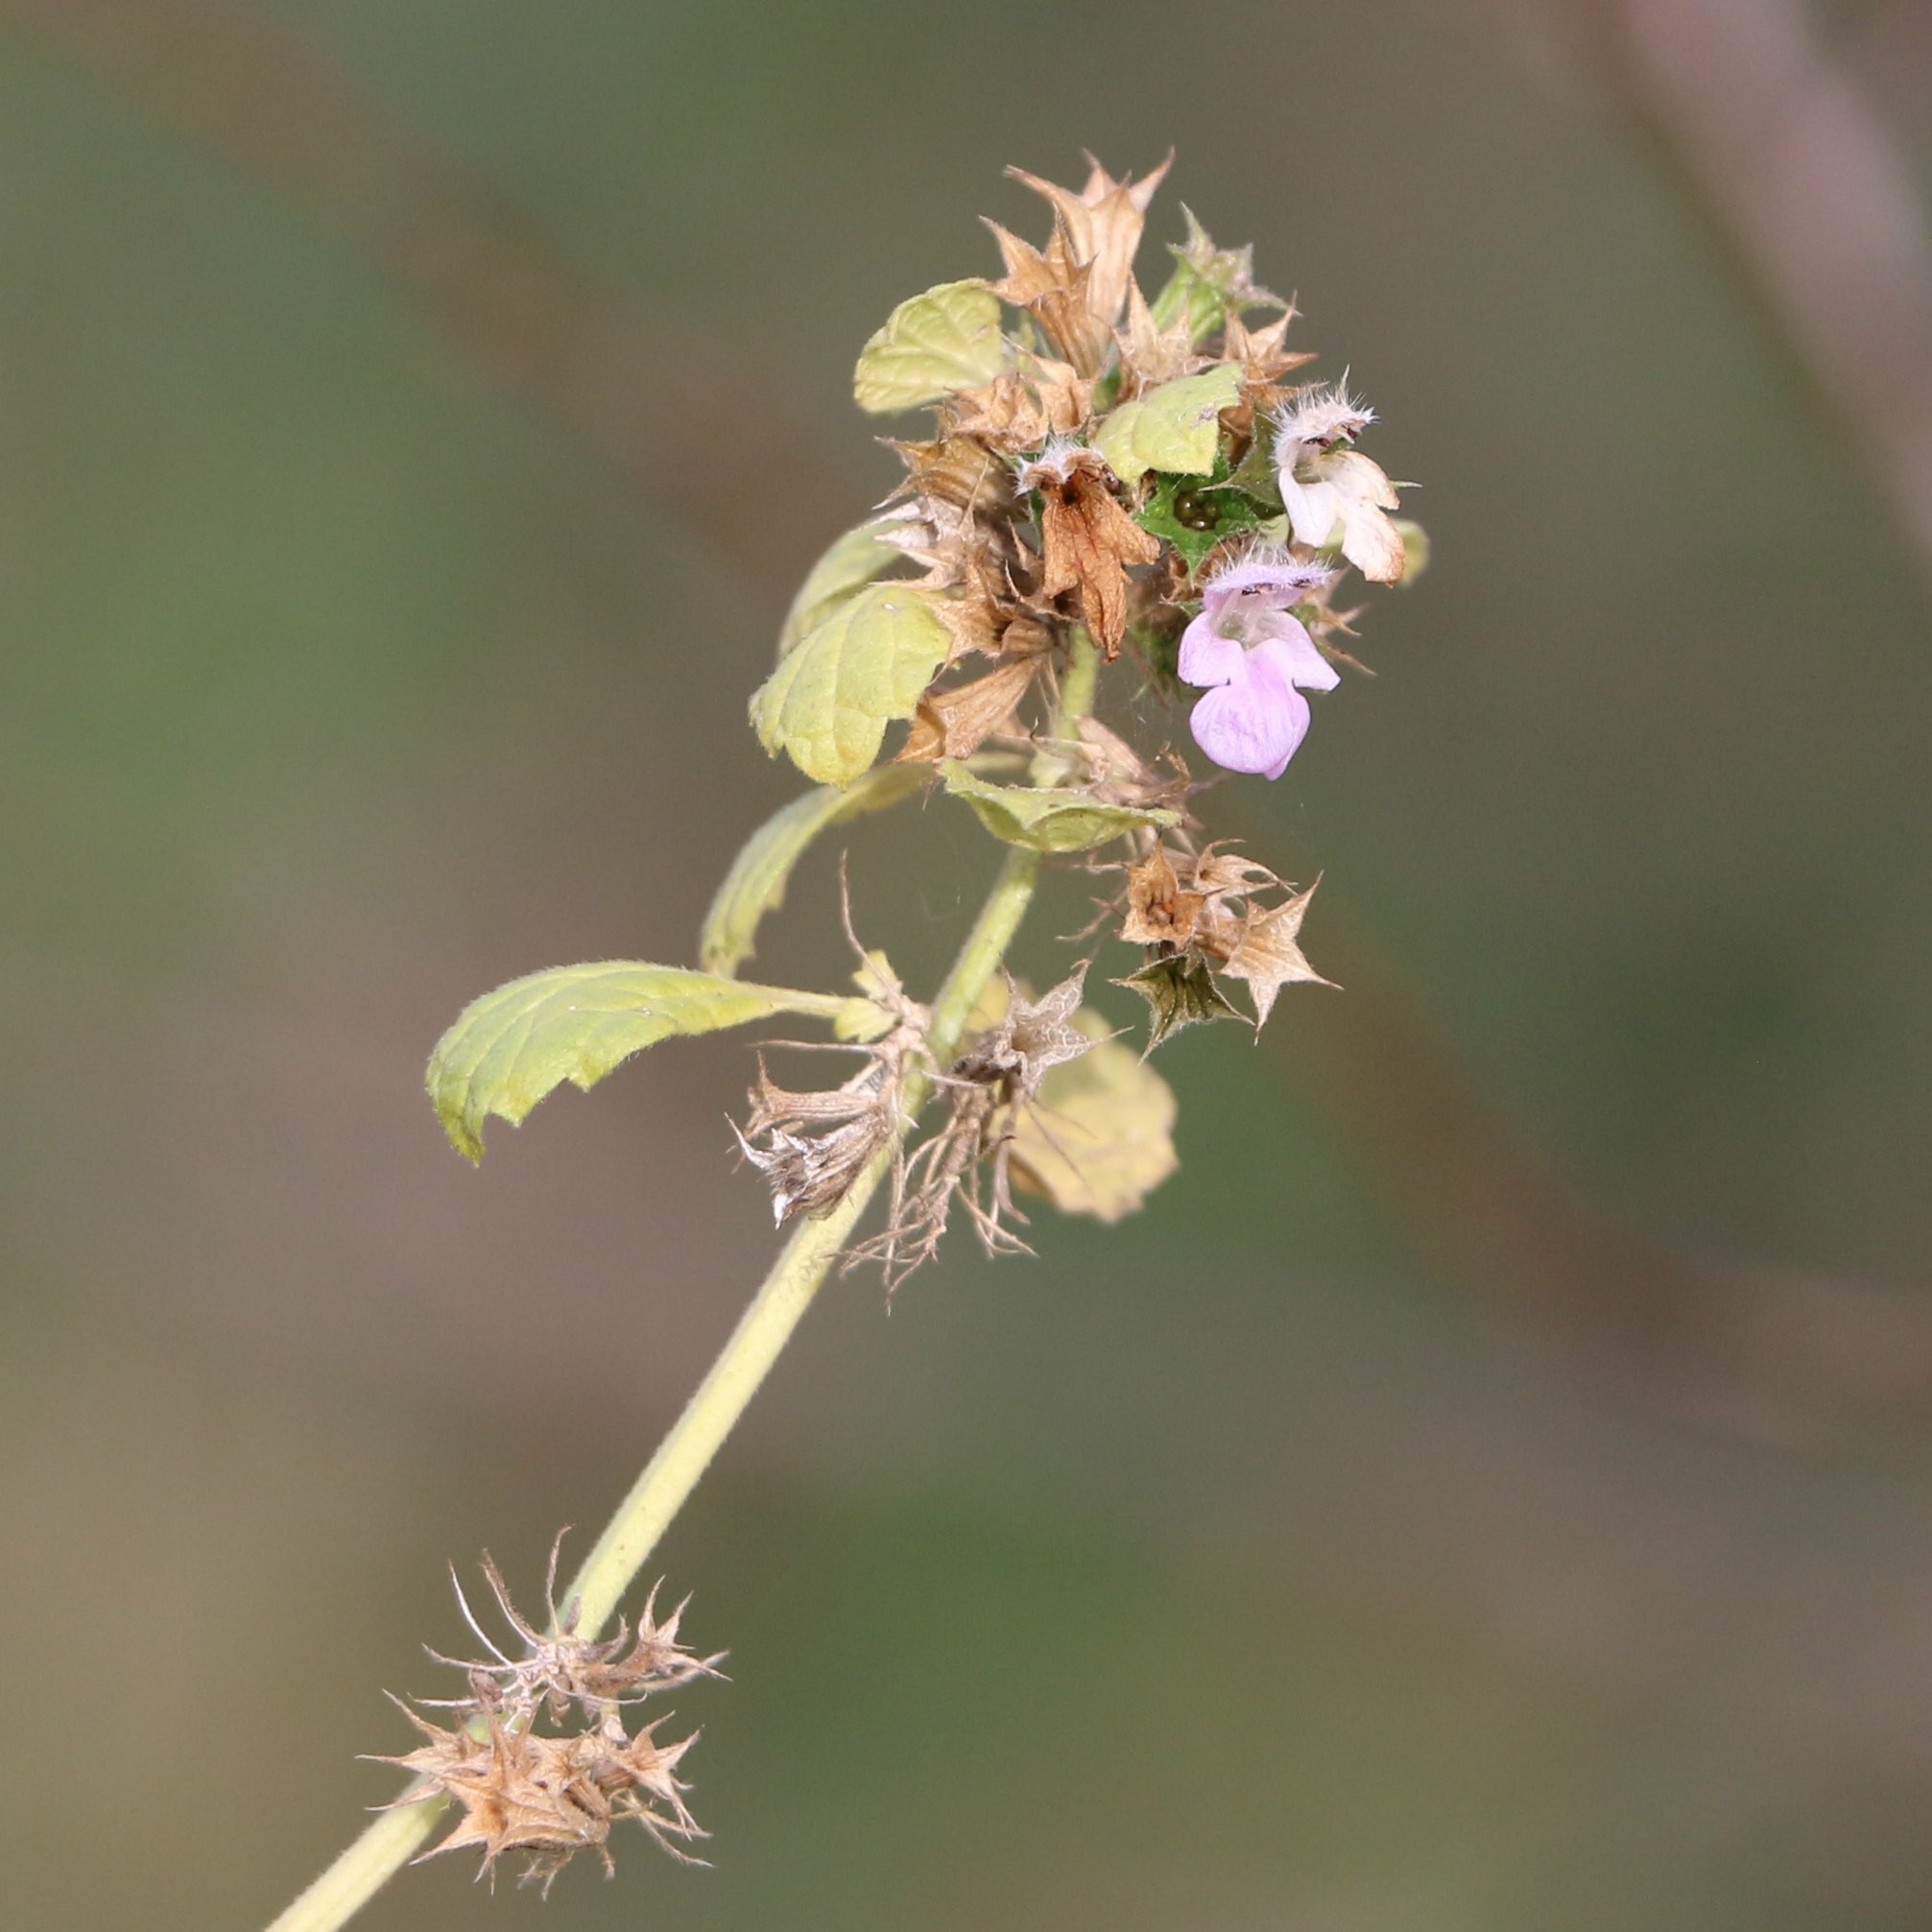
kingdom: Plantae
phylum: Tracheophyta
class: Magnoliopsida
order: Lamiales
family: Lamiaceae
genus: Ballota
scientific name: Ballota nigra
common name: Black horehound
